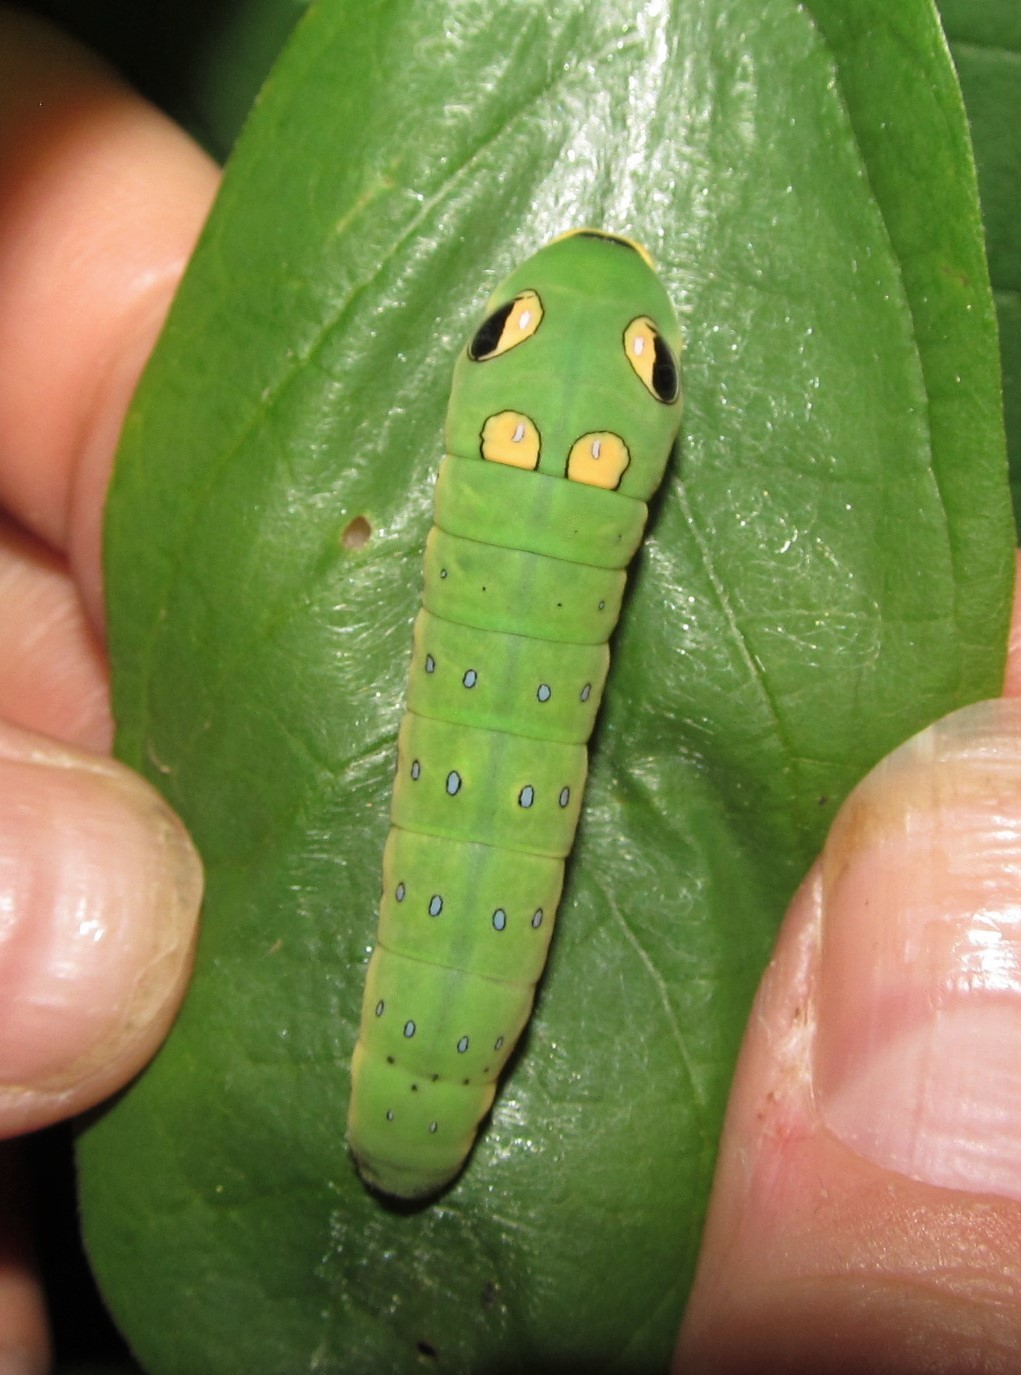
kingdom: Animalia
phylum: Arthropoda
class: Insecta
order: Lepidoptera
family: Papilionidae
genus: Papilio
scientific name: Papilio troilus
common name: Spicebush swallowtail
